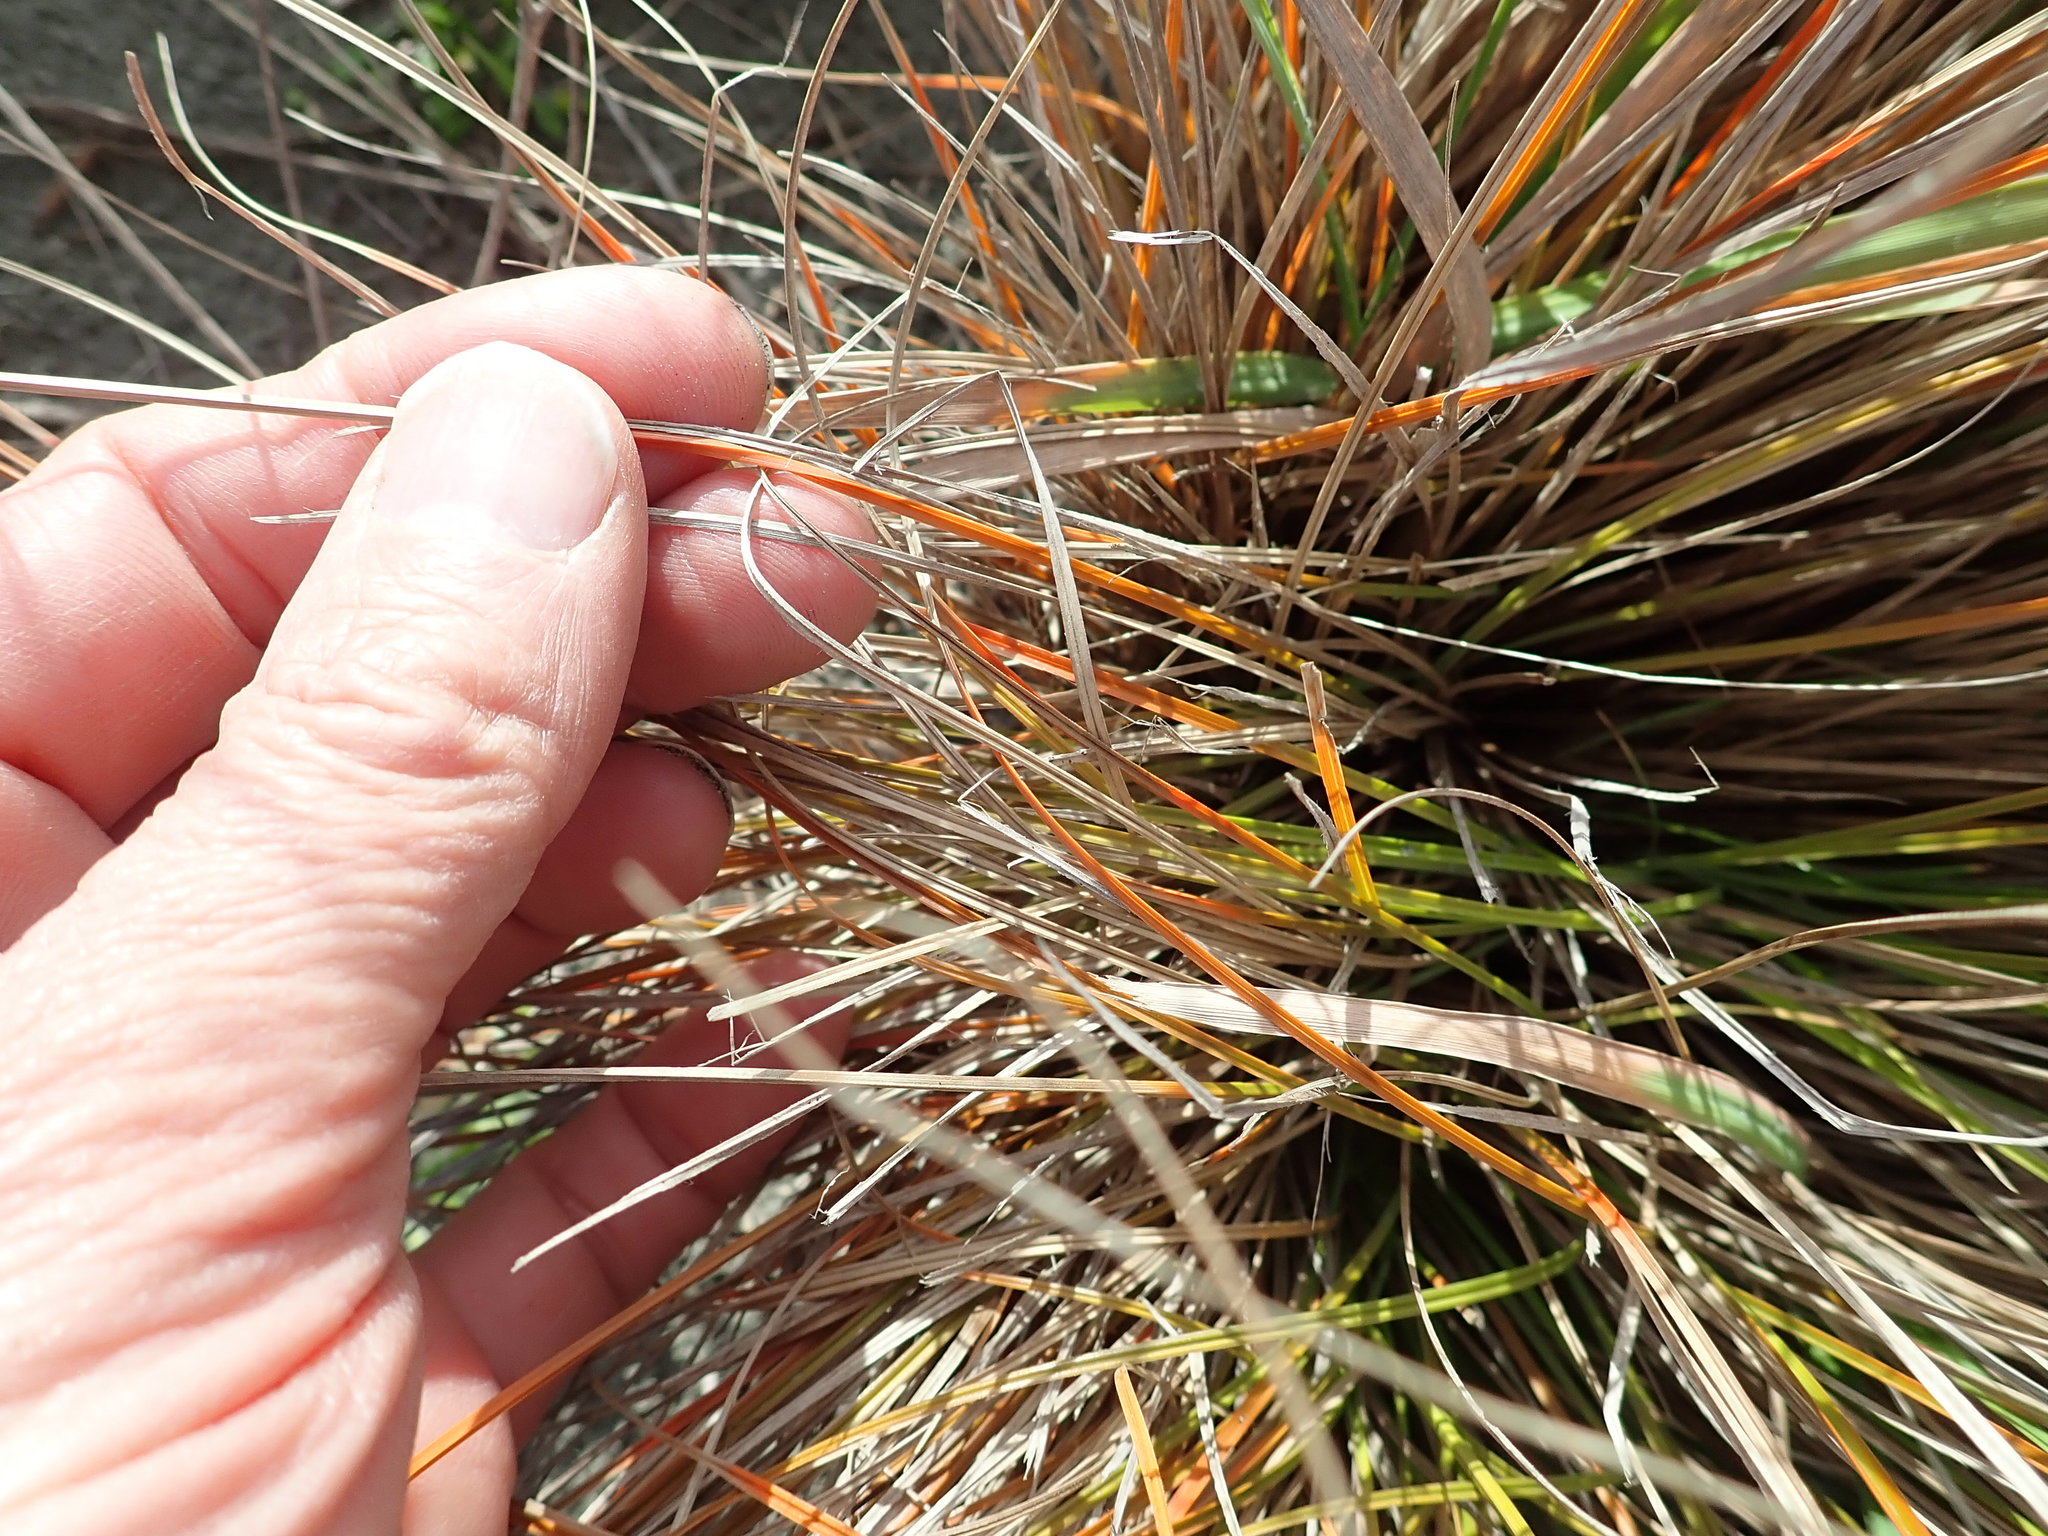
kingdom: Plantae
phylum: Tracheophyta
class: Liliopsida
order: Poales
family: Cyperaceae
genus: Carex
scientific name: Carex testacea
